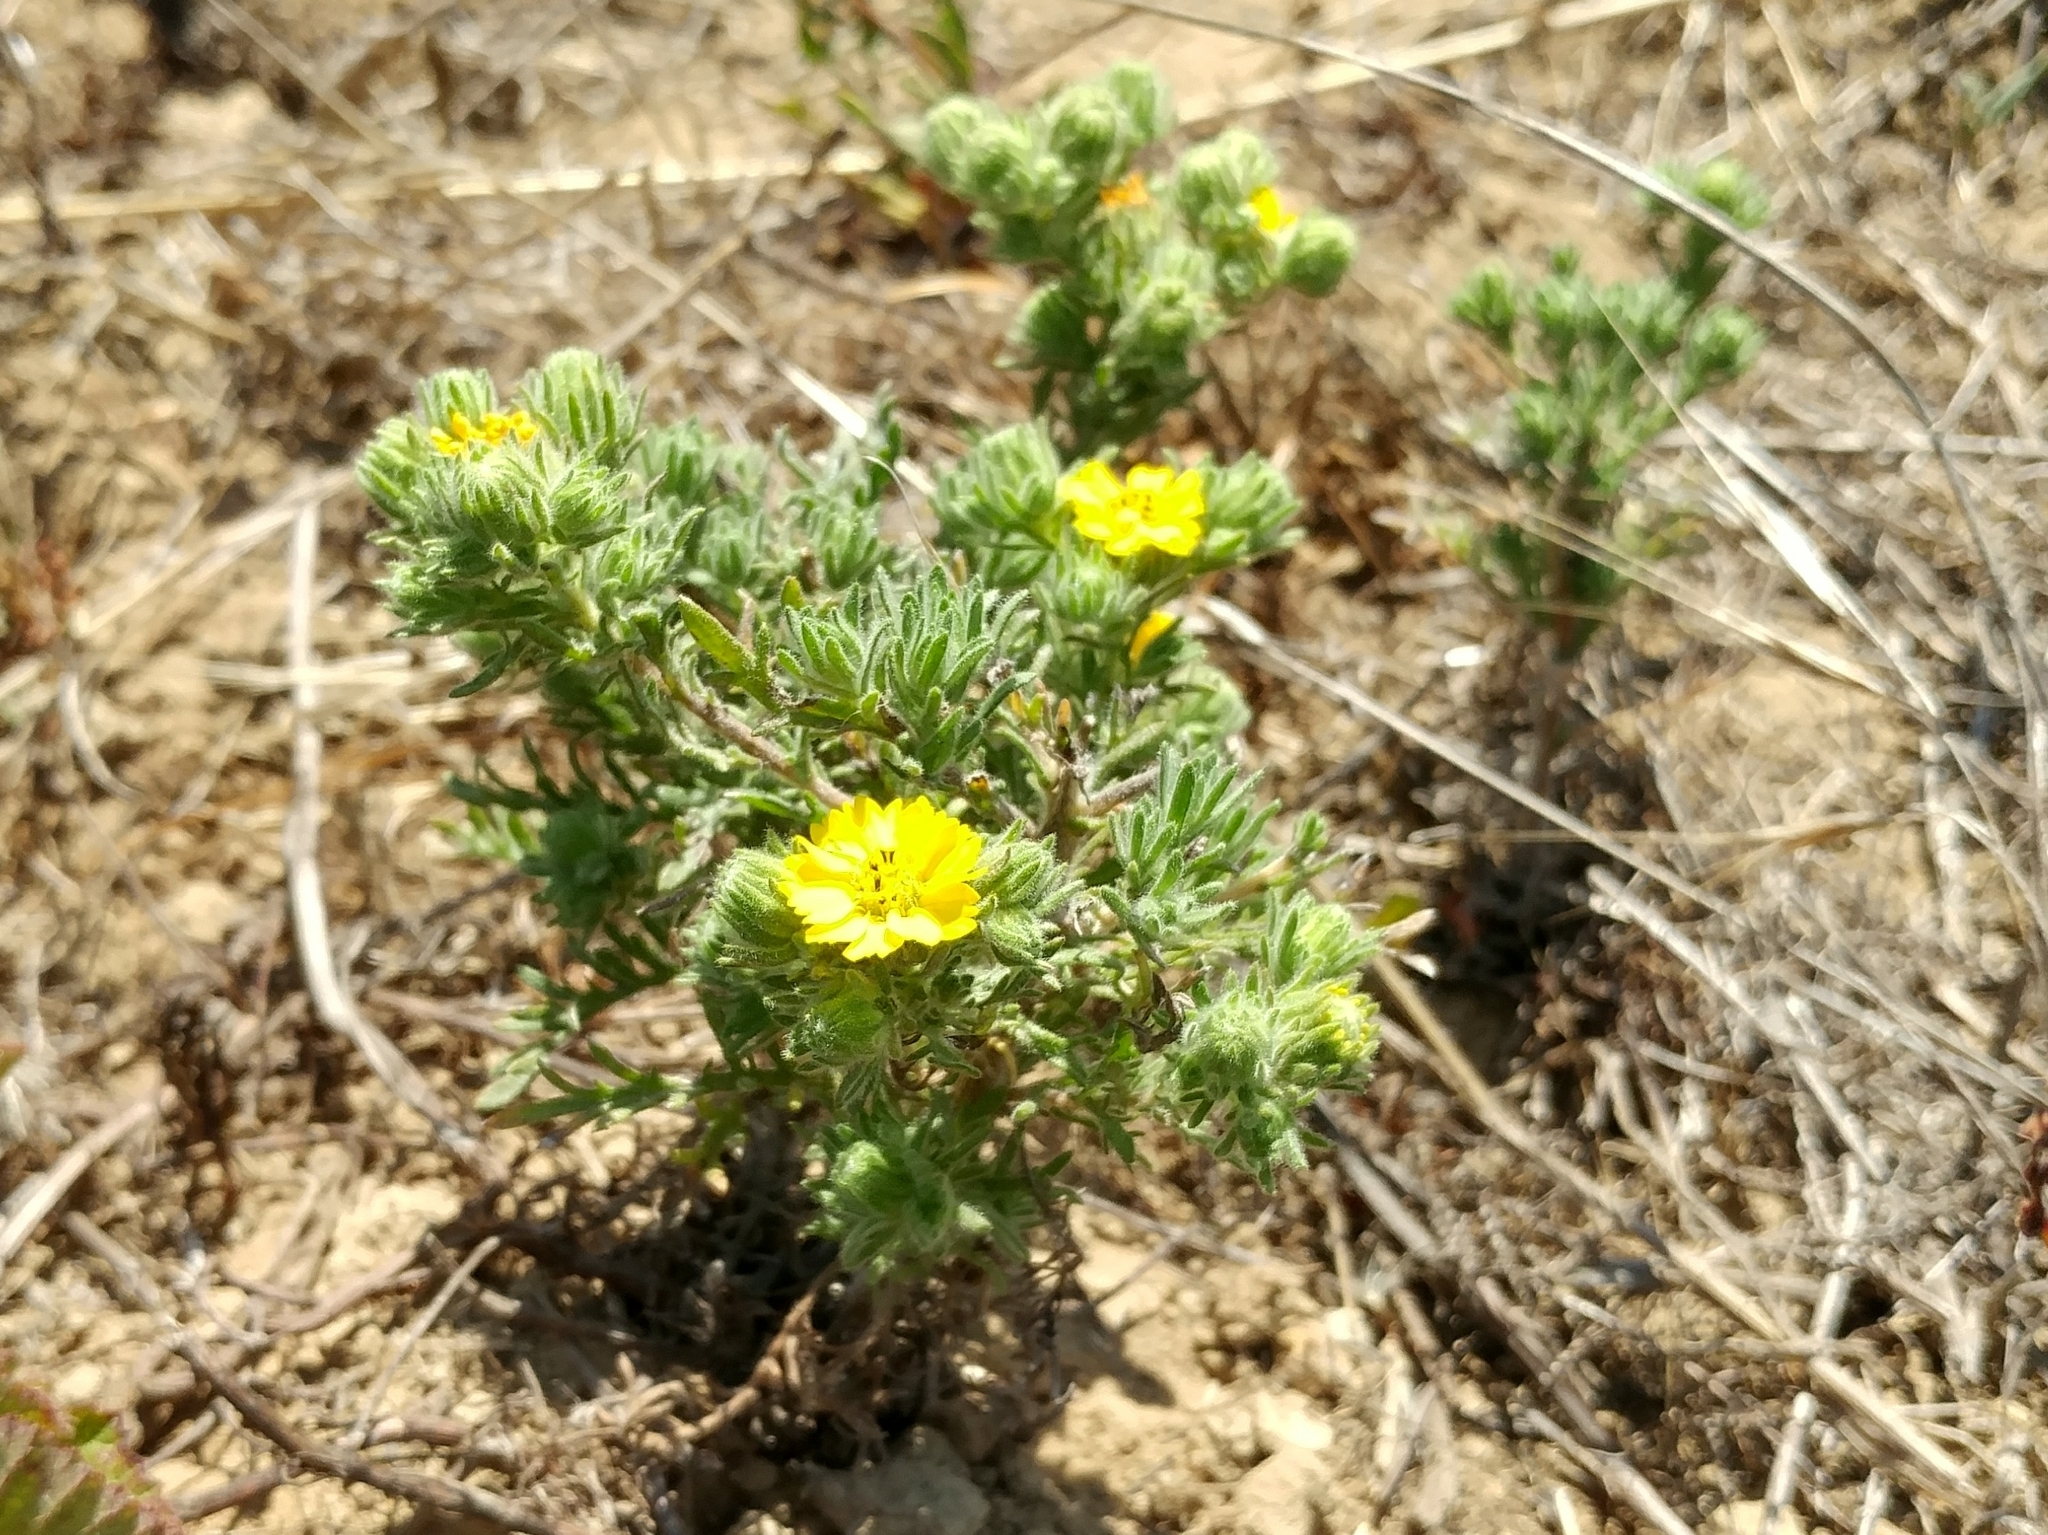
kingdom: Plantae
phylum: Tracheophyta
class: Magnoliopsida
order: Asterales
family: Asteraceae
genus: Deinandra
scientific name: Deinandra increscens
